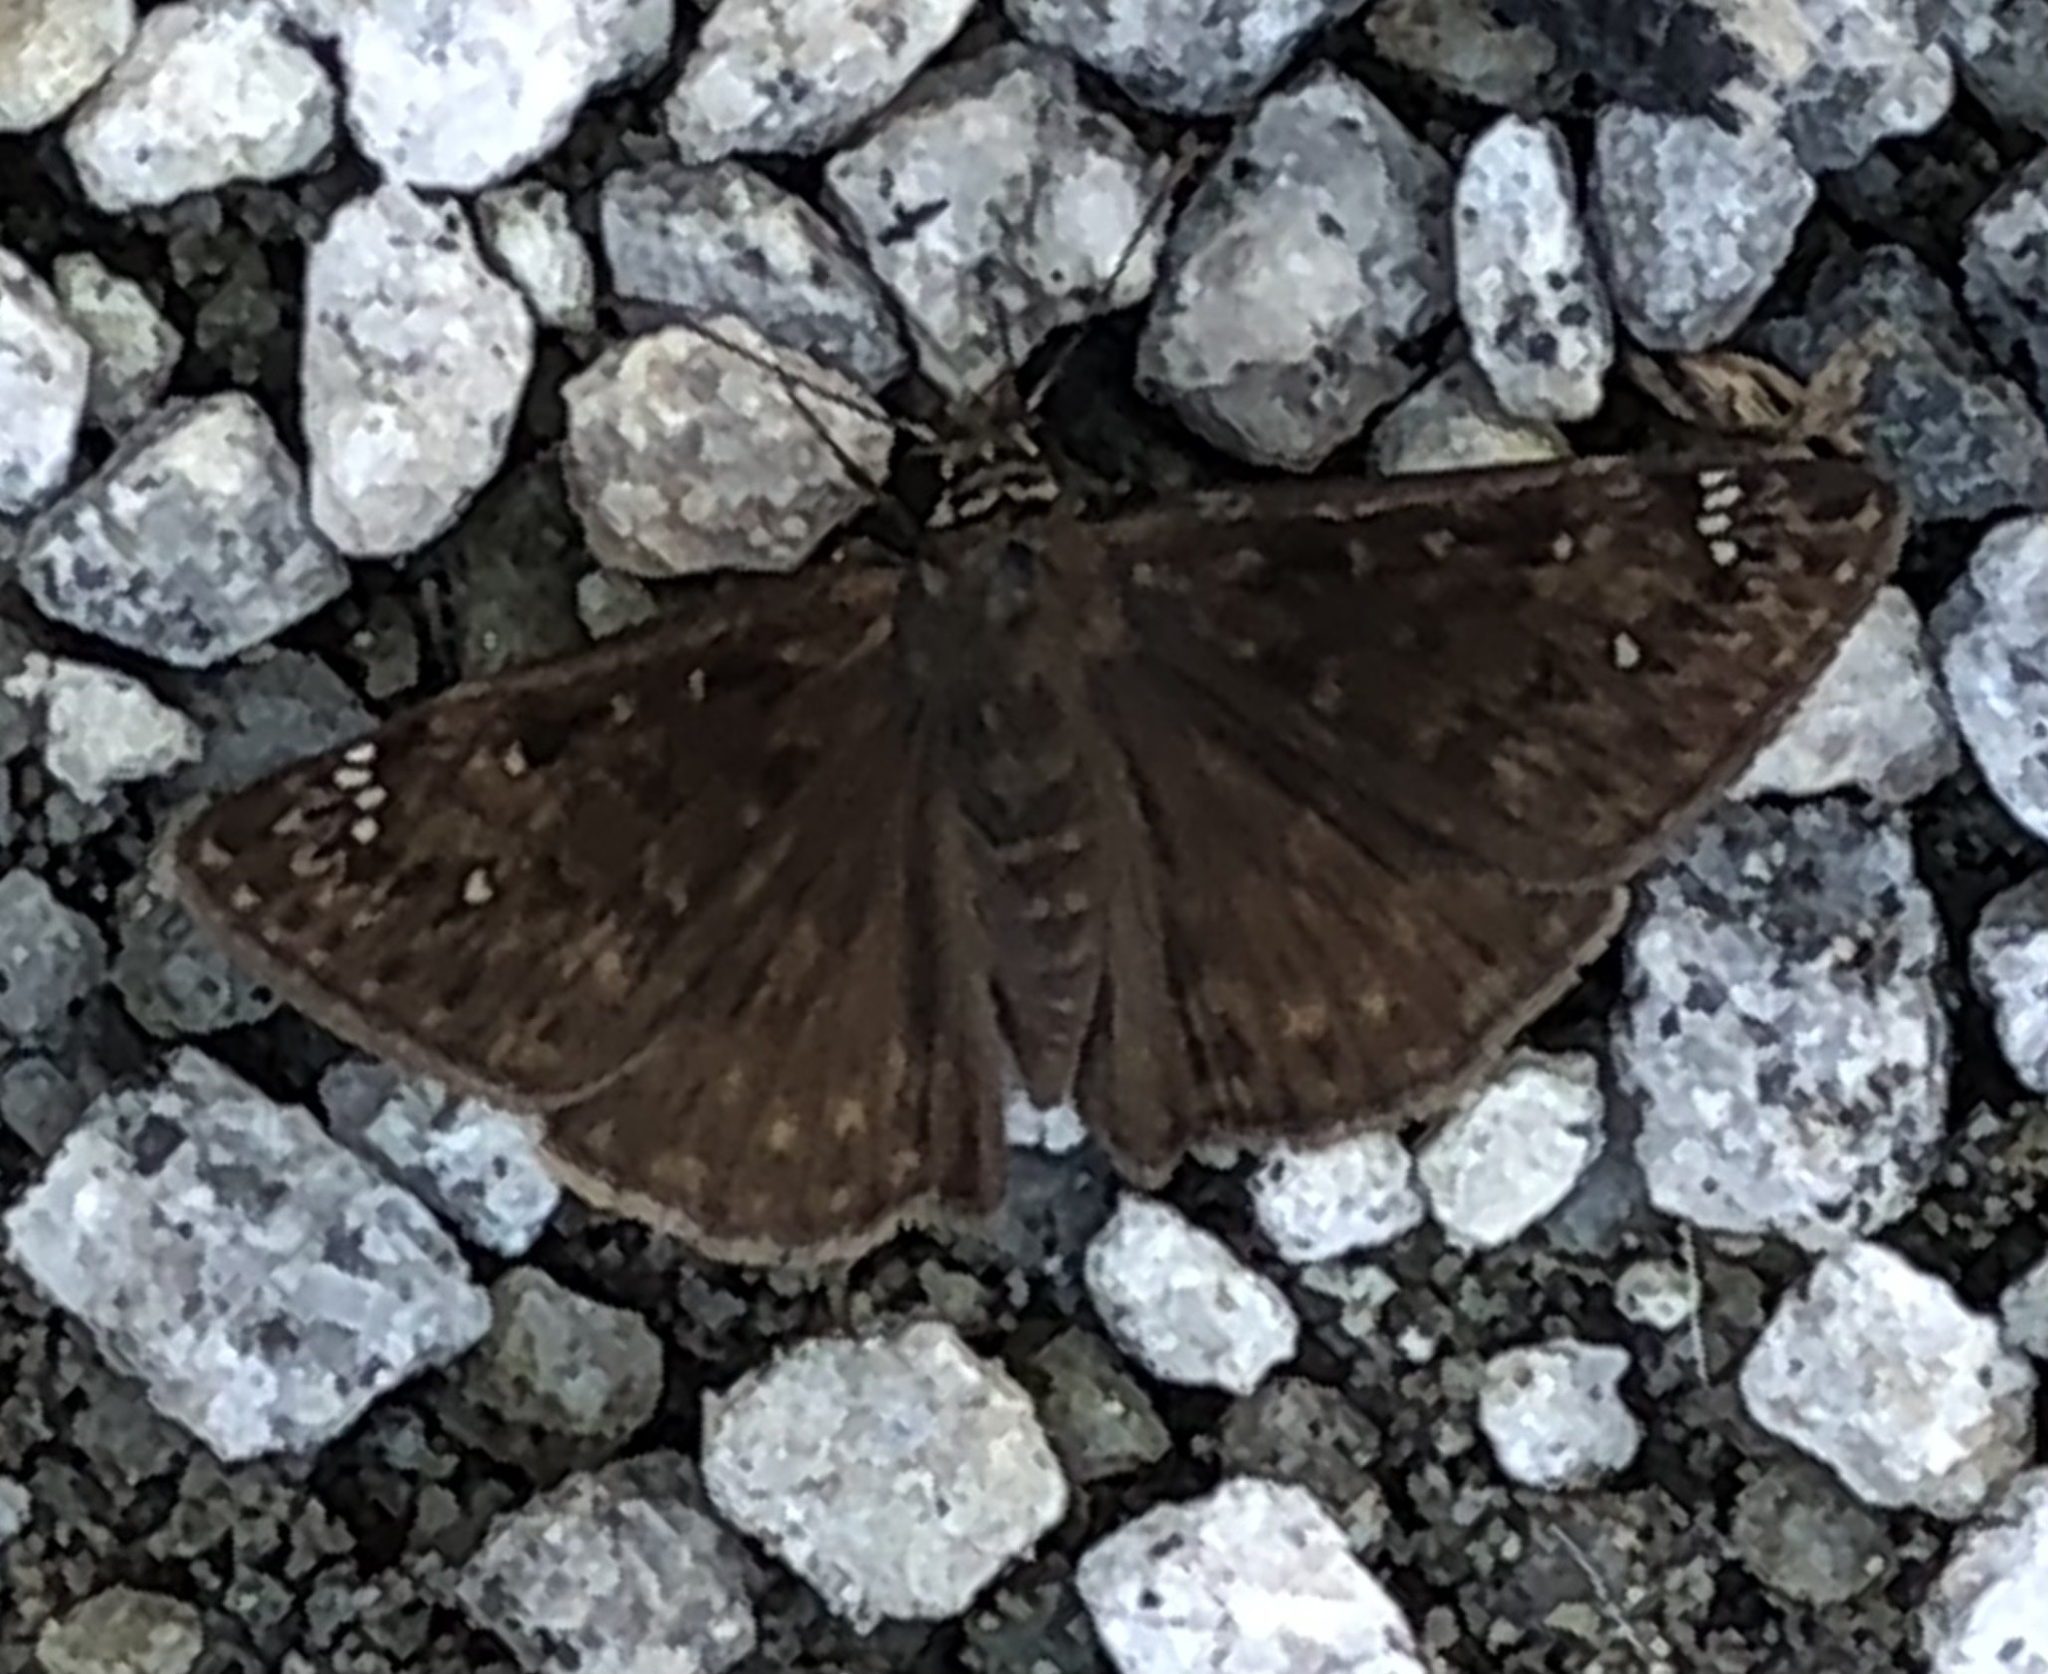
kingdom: Animalia
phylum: Arthropoda
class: Insecta
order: Lepidoptera
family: Hesperiidae
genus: Erynnis
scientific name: Erynnis horatius
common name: Horace's duskywing
